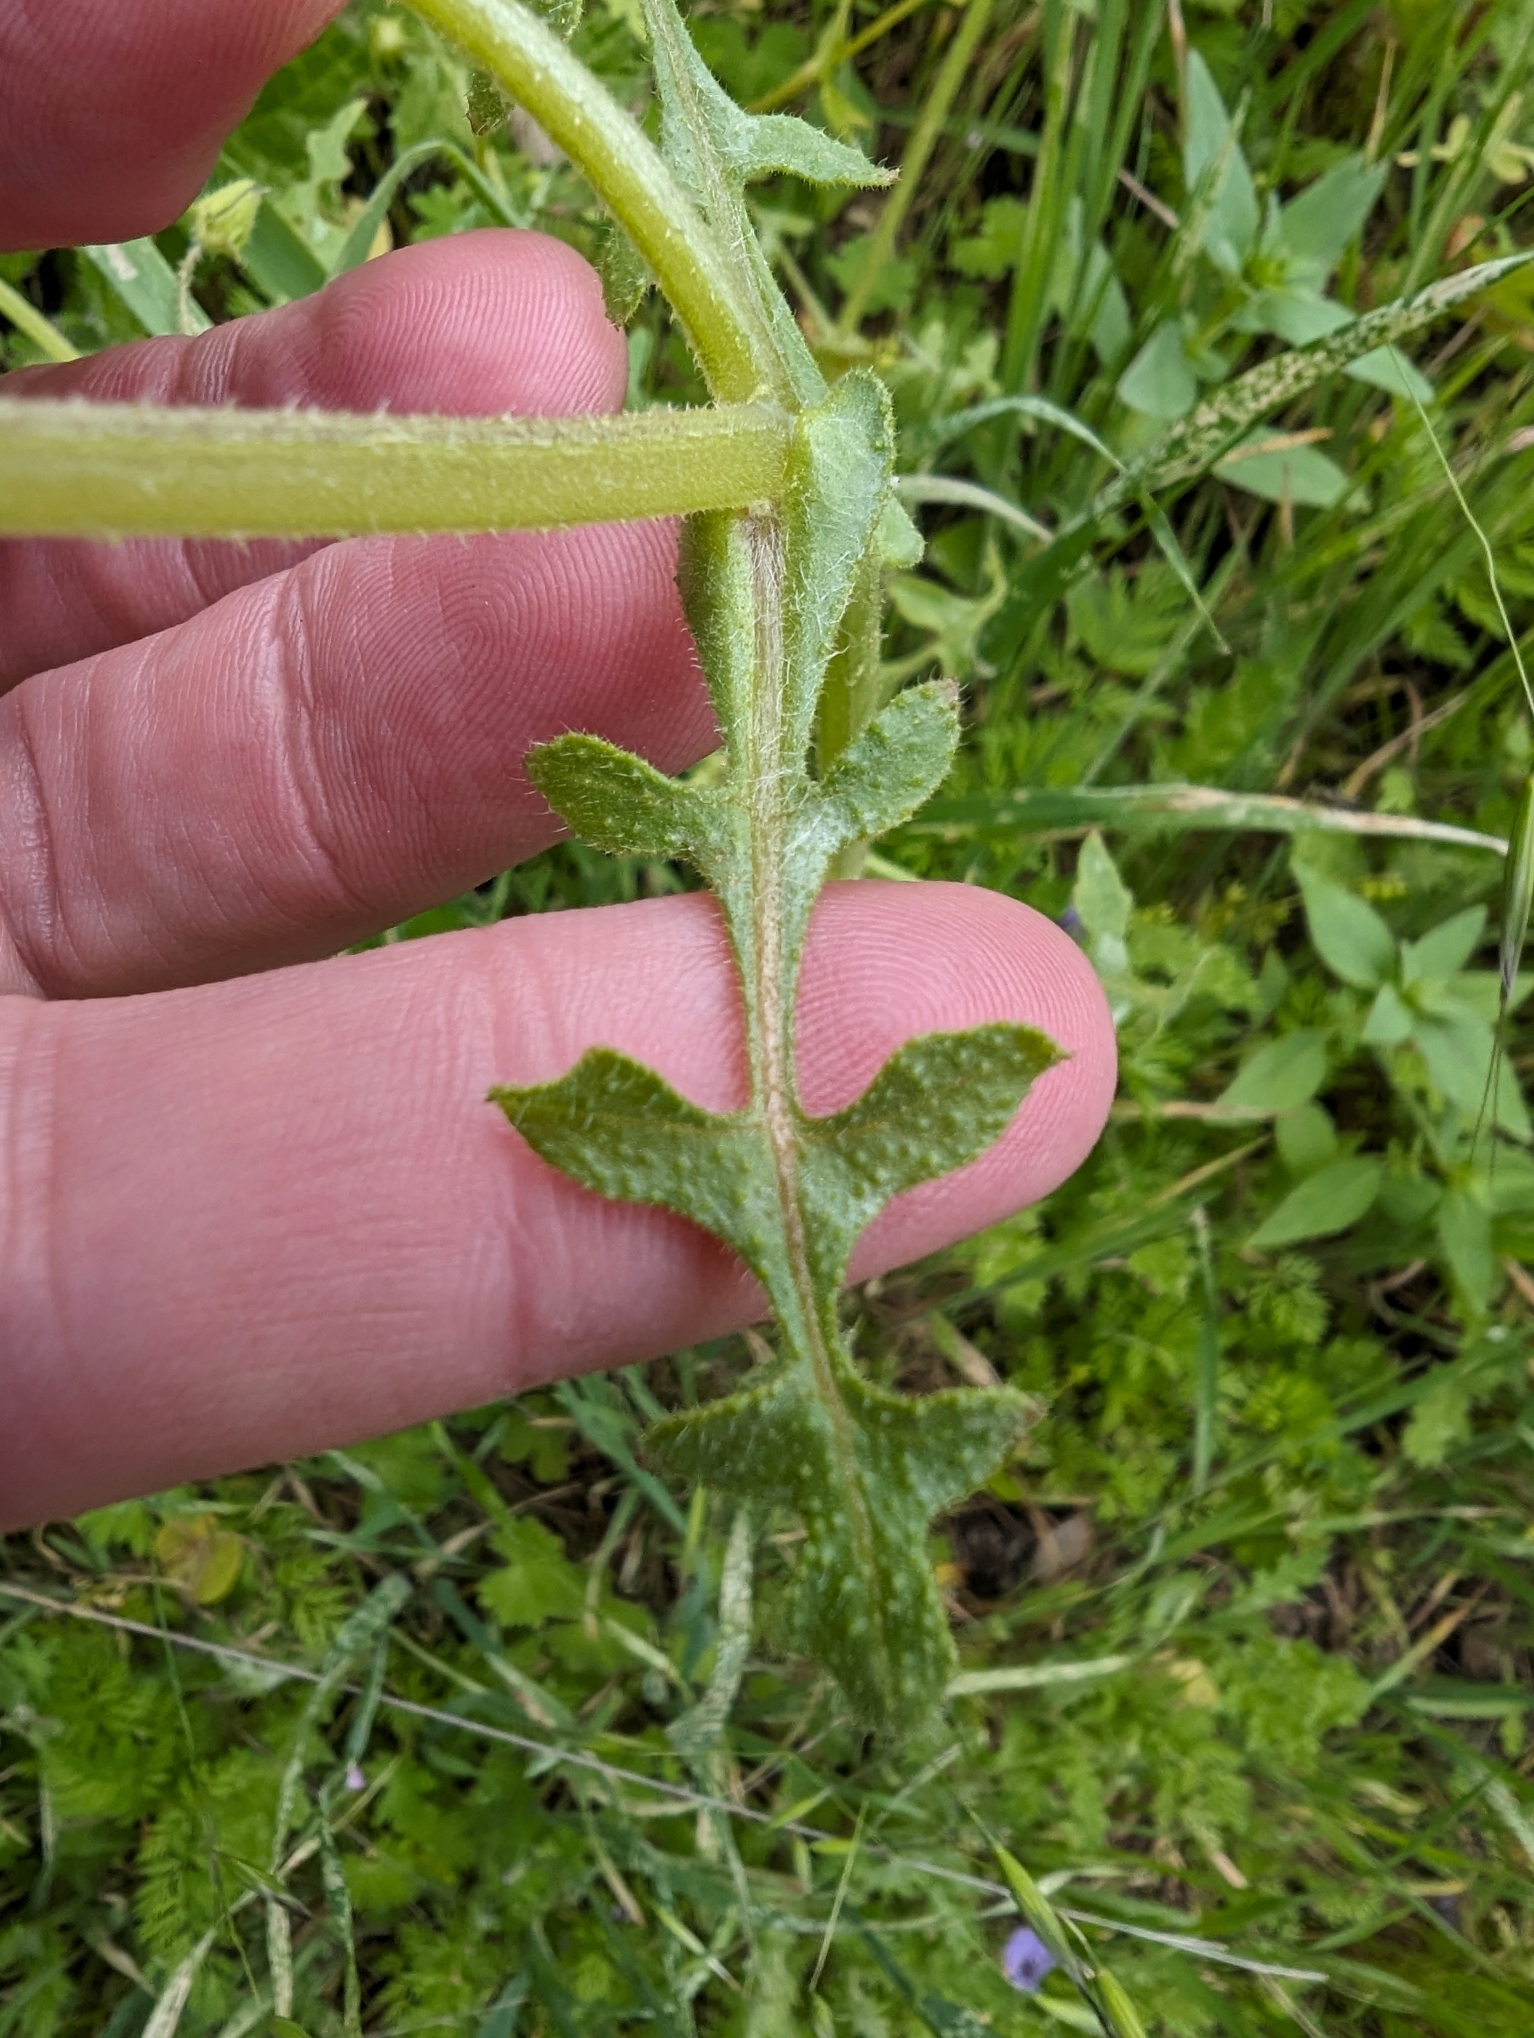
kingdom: Plantae
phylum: Tracheophyta
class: Magnoliopsida
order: Boraginales
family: Hydrophyllaceae
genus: Pholistoma
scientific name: Pholistoma auritum
